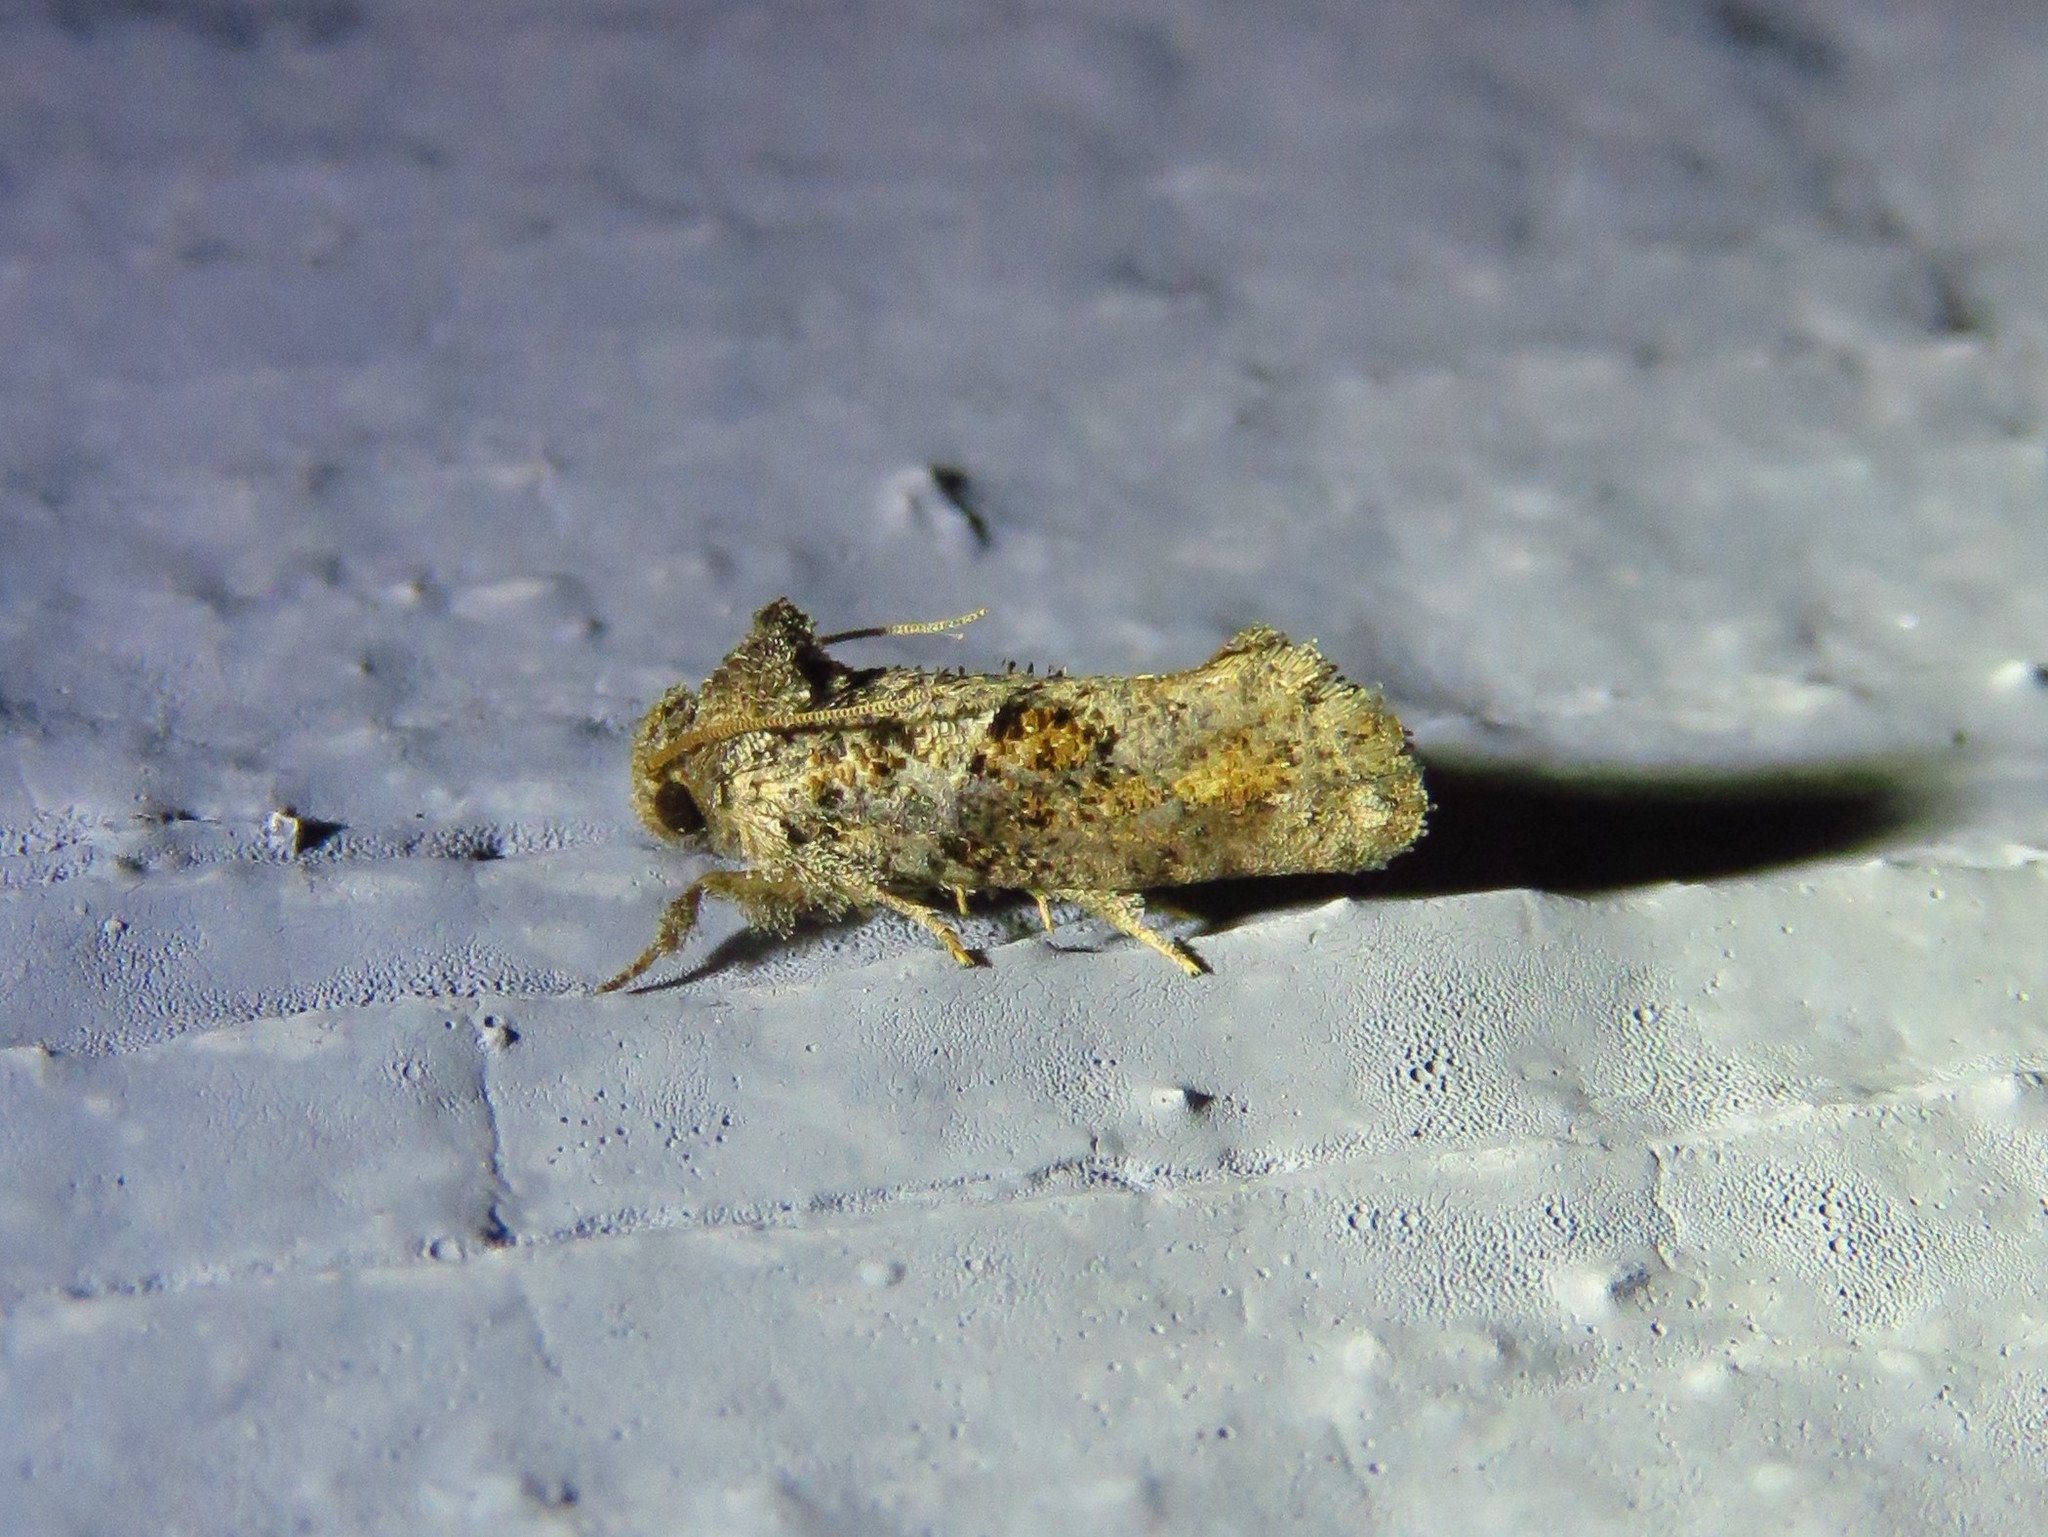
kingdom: Animalia
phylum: Arthropoda
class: Insecta
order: Lepidoptera
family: Tineidae
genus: Acrolophus
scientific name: Acrolophus piger
